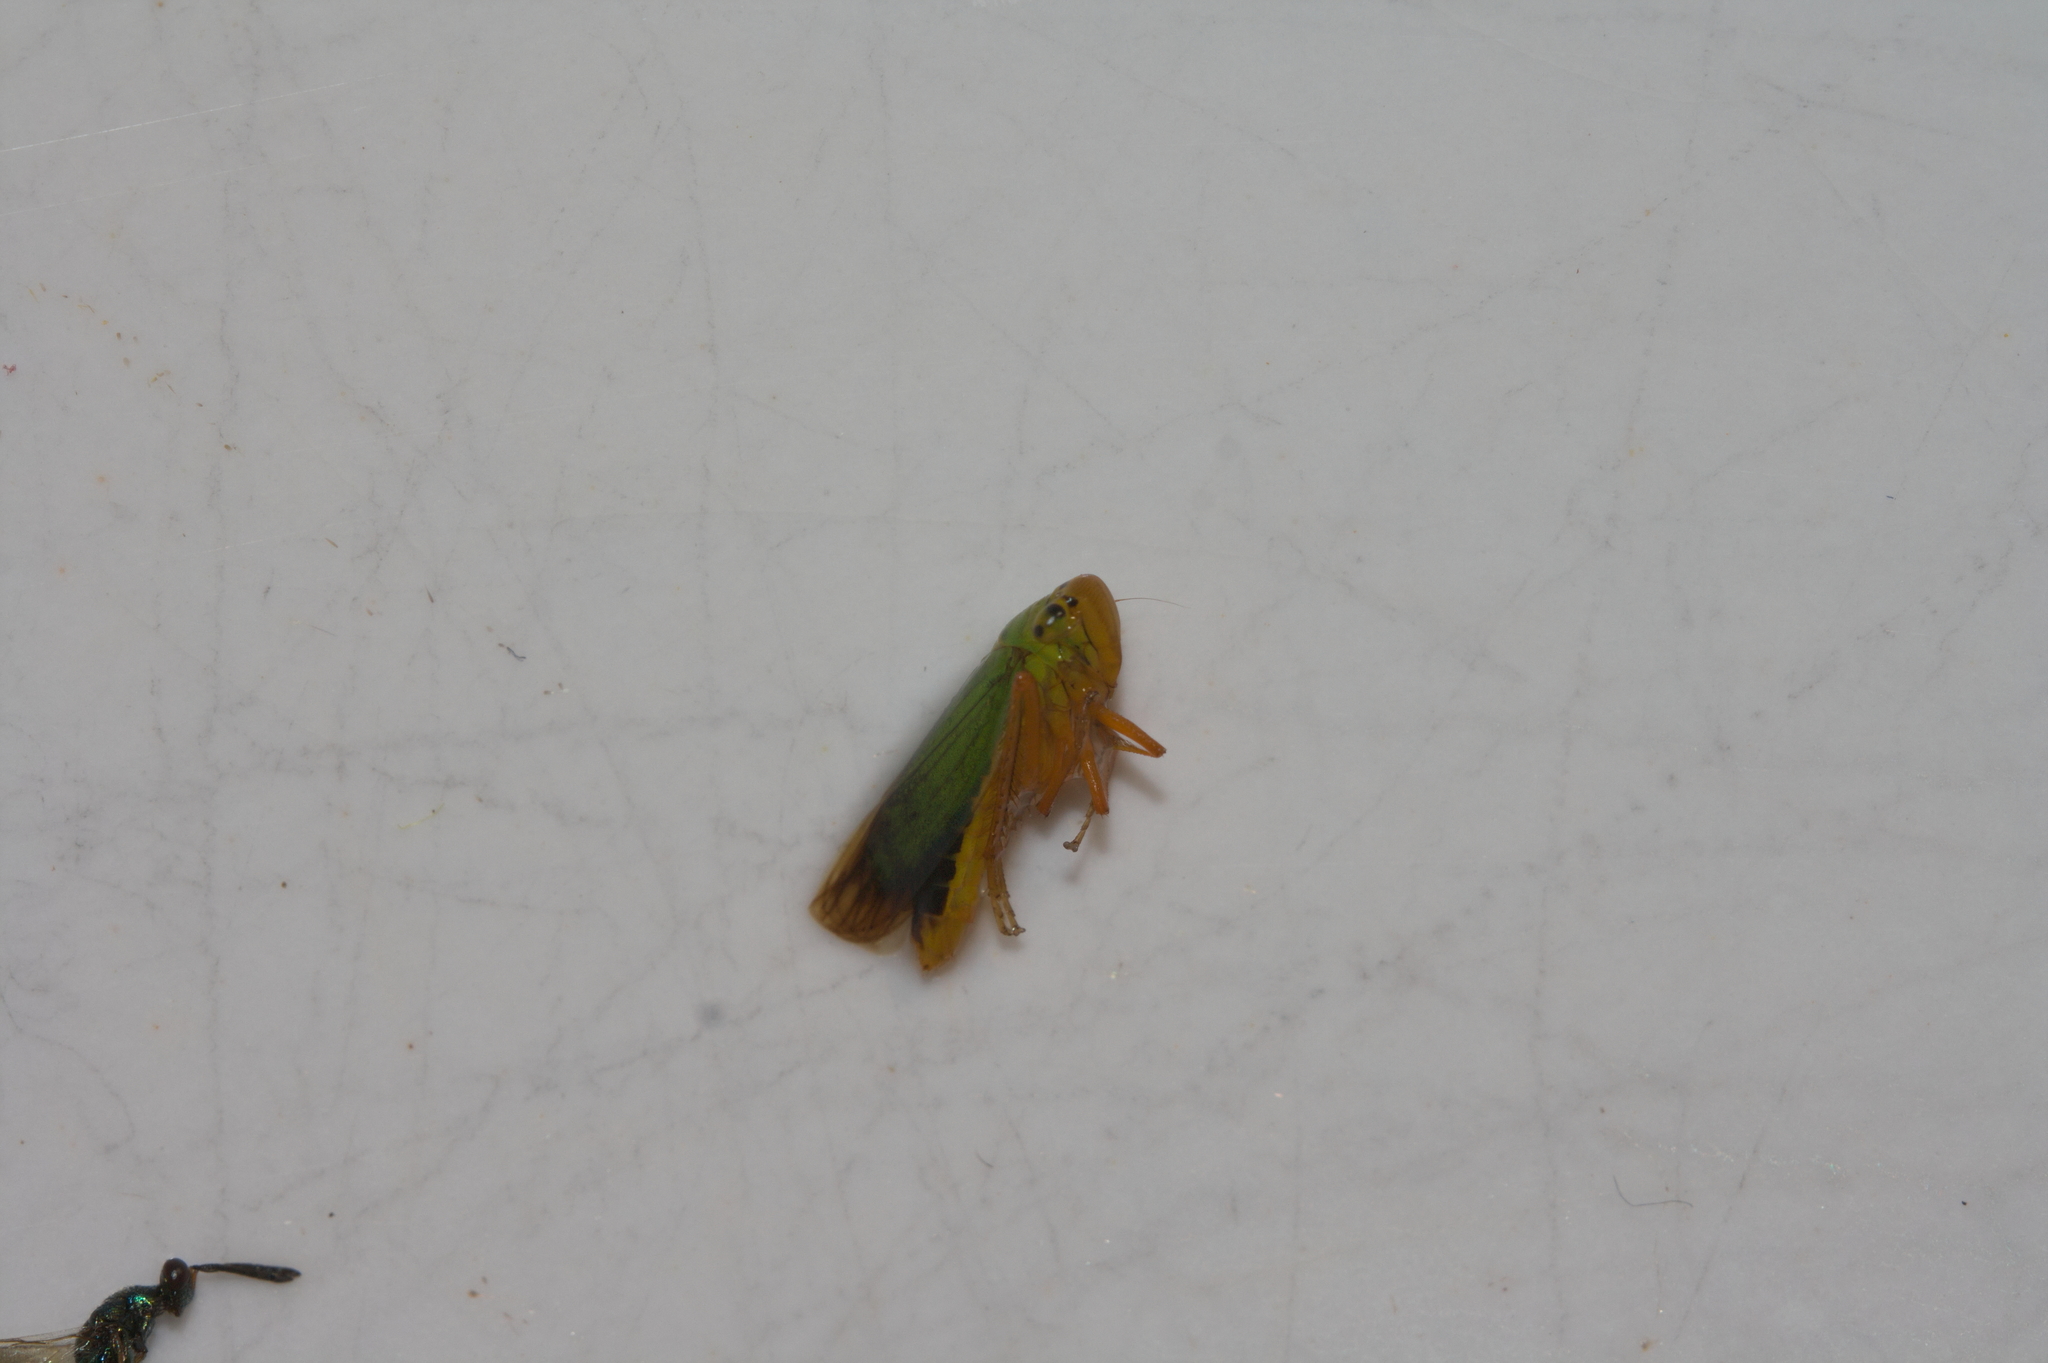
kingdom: Animalia
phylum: Arthropoda
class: Insecta
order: Hemiptera
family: Cicadellidae
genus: Cicadella
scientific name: Cicadella viridis
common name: Leafhopper
